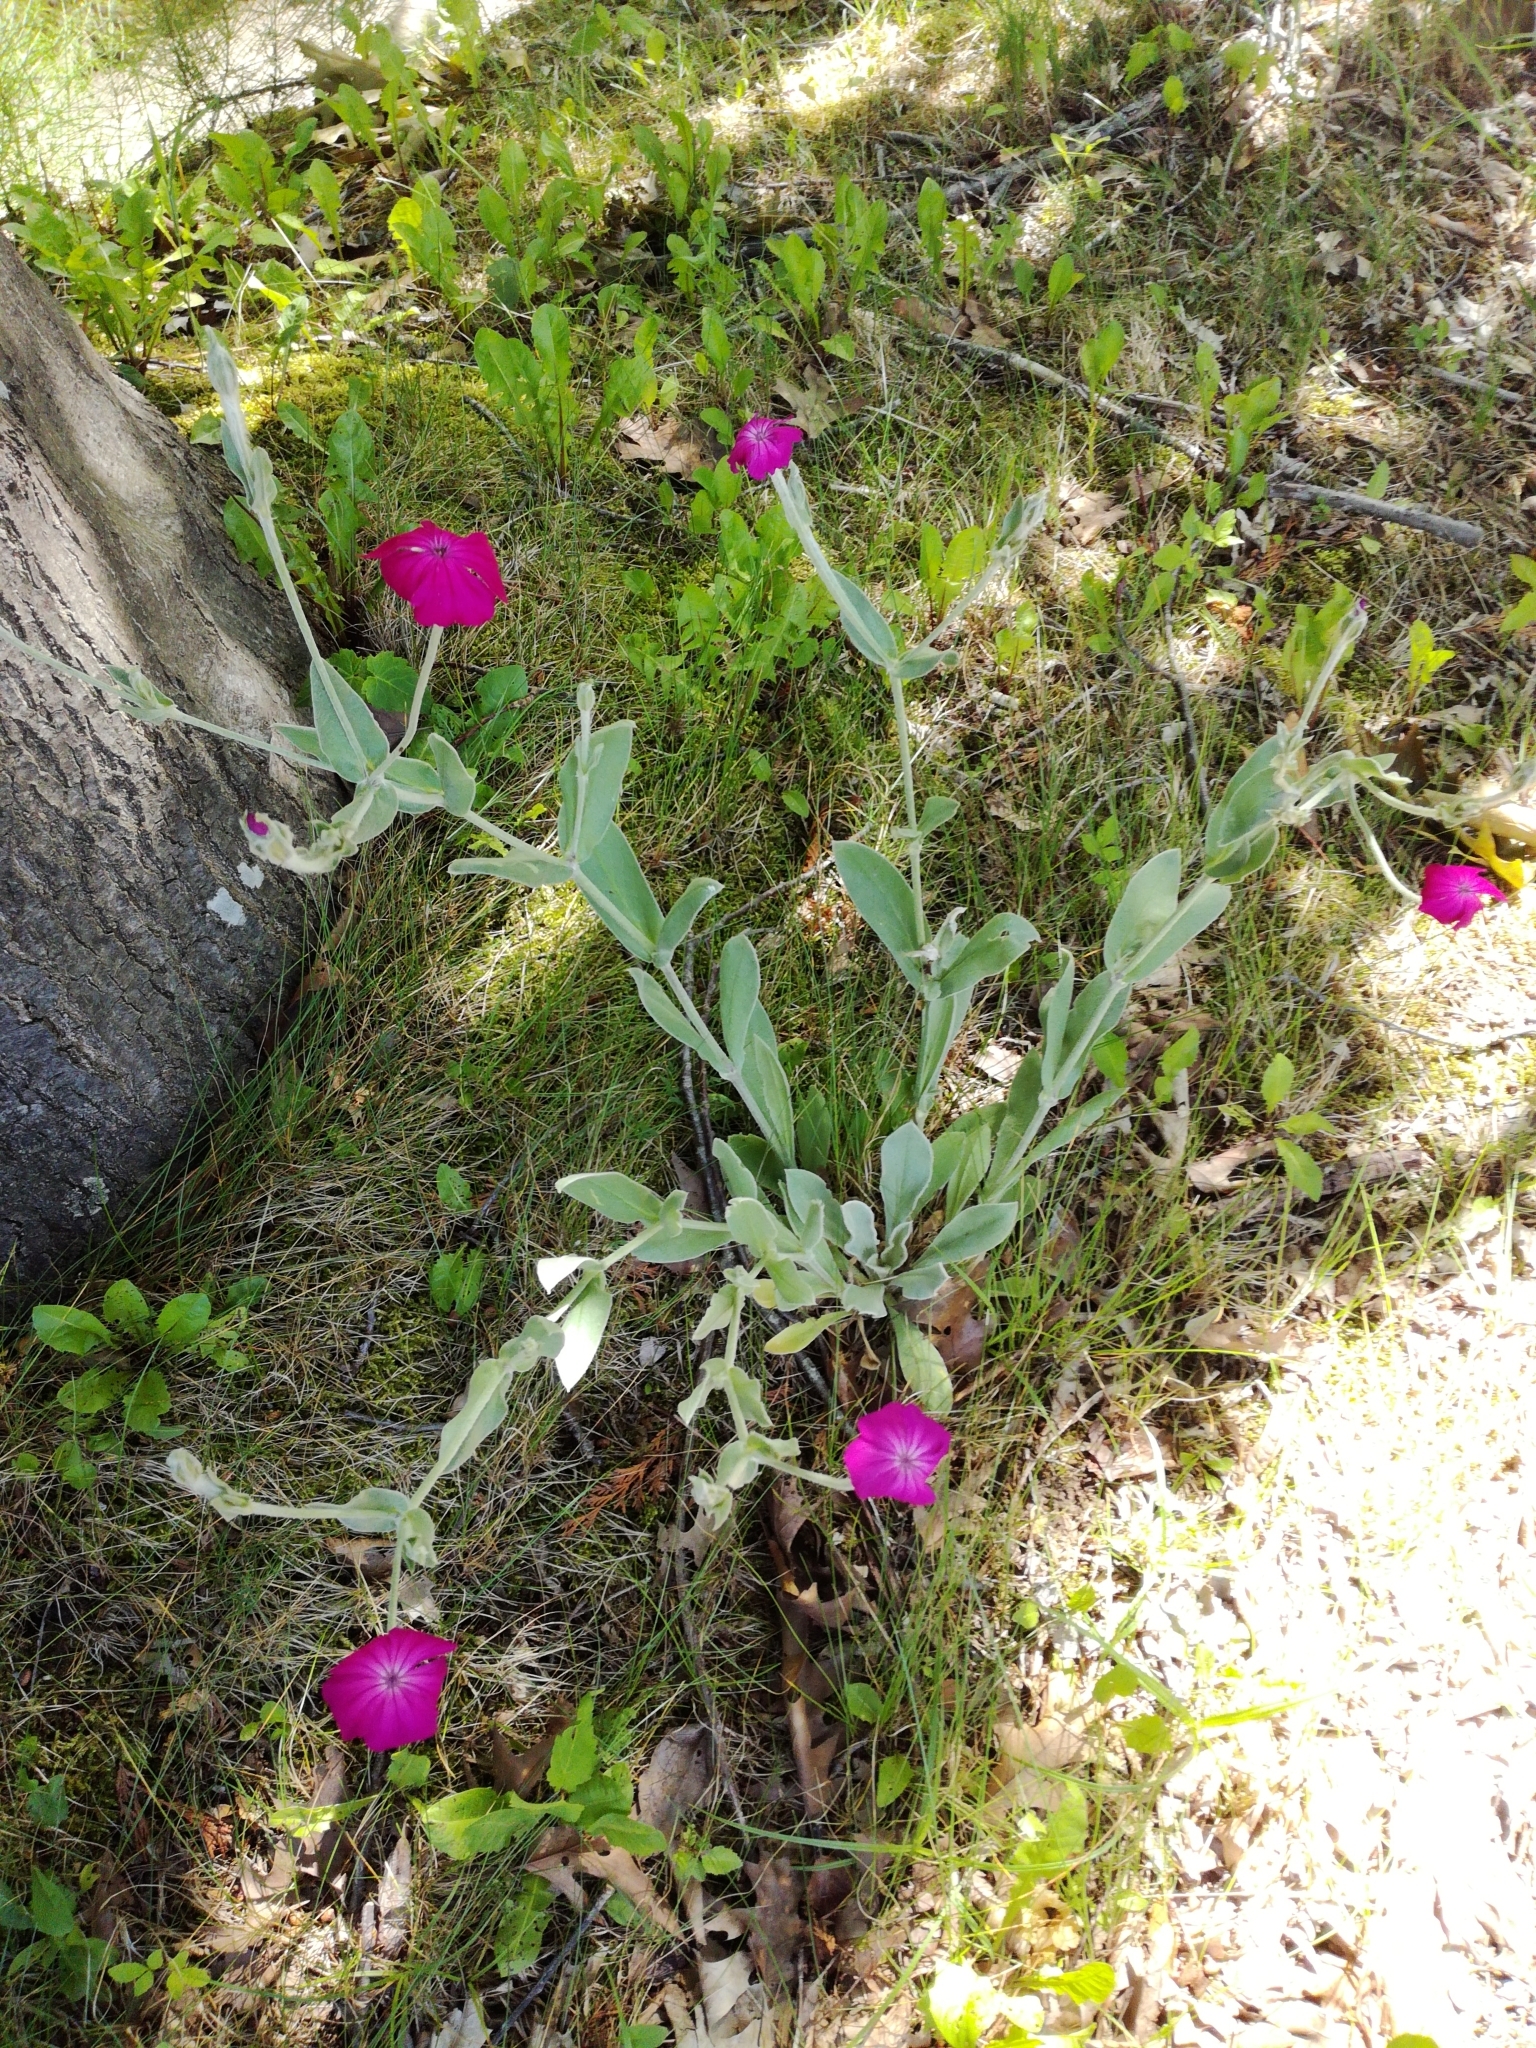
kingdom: Plantae
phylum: Tracheophyta
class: Magnoliopsida
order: Caryophyllales
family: Caryophyllaceae
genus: Silene
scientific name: Silene coronaria
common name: Rose campion
